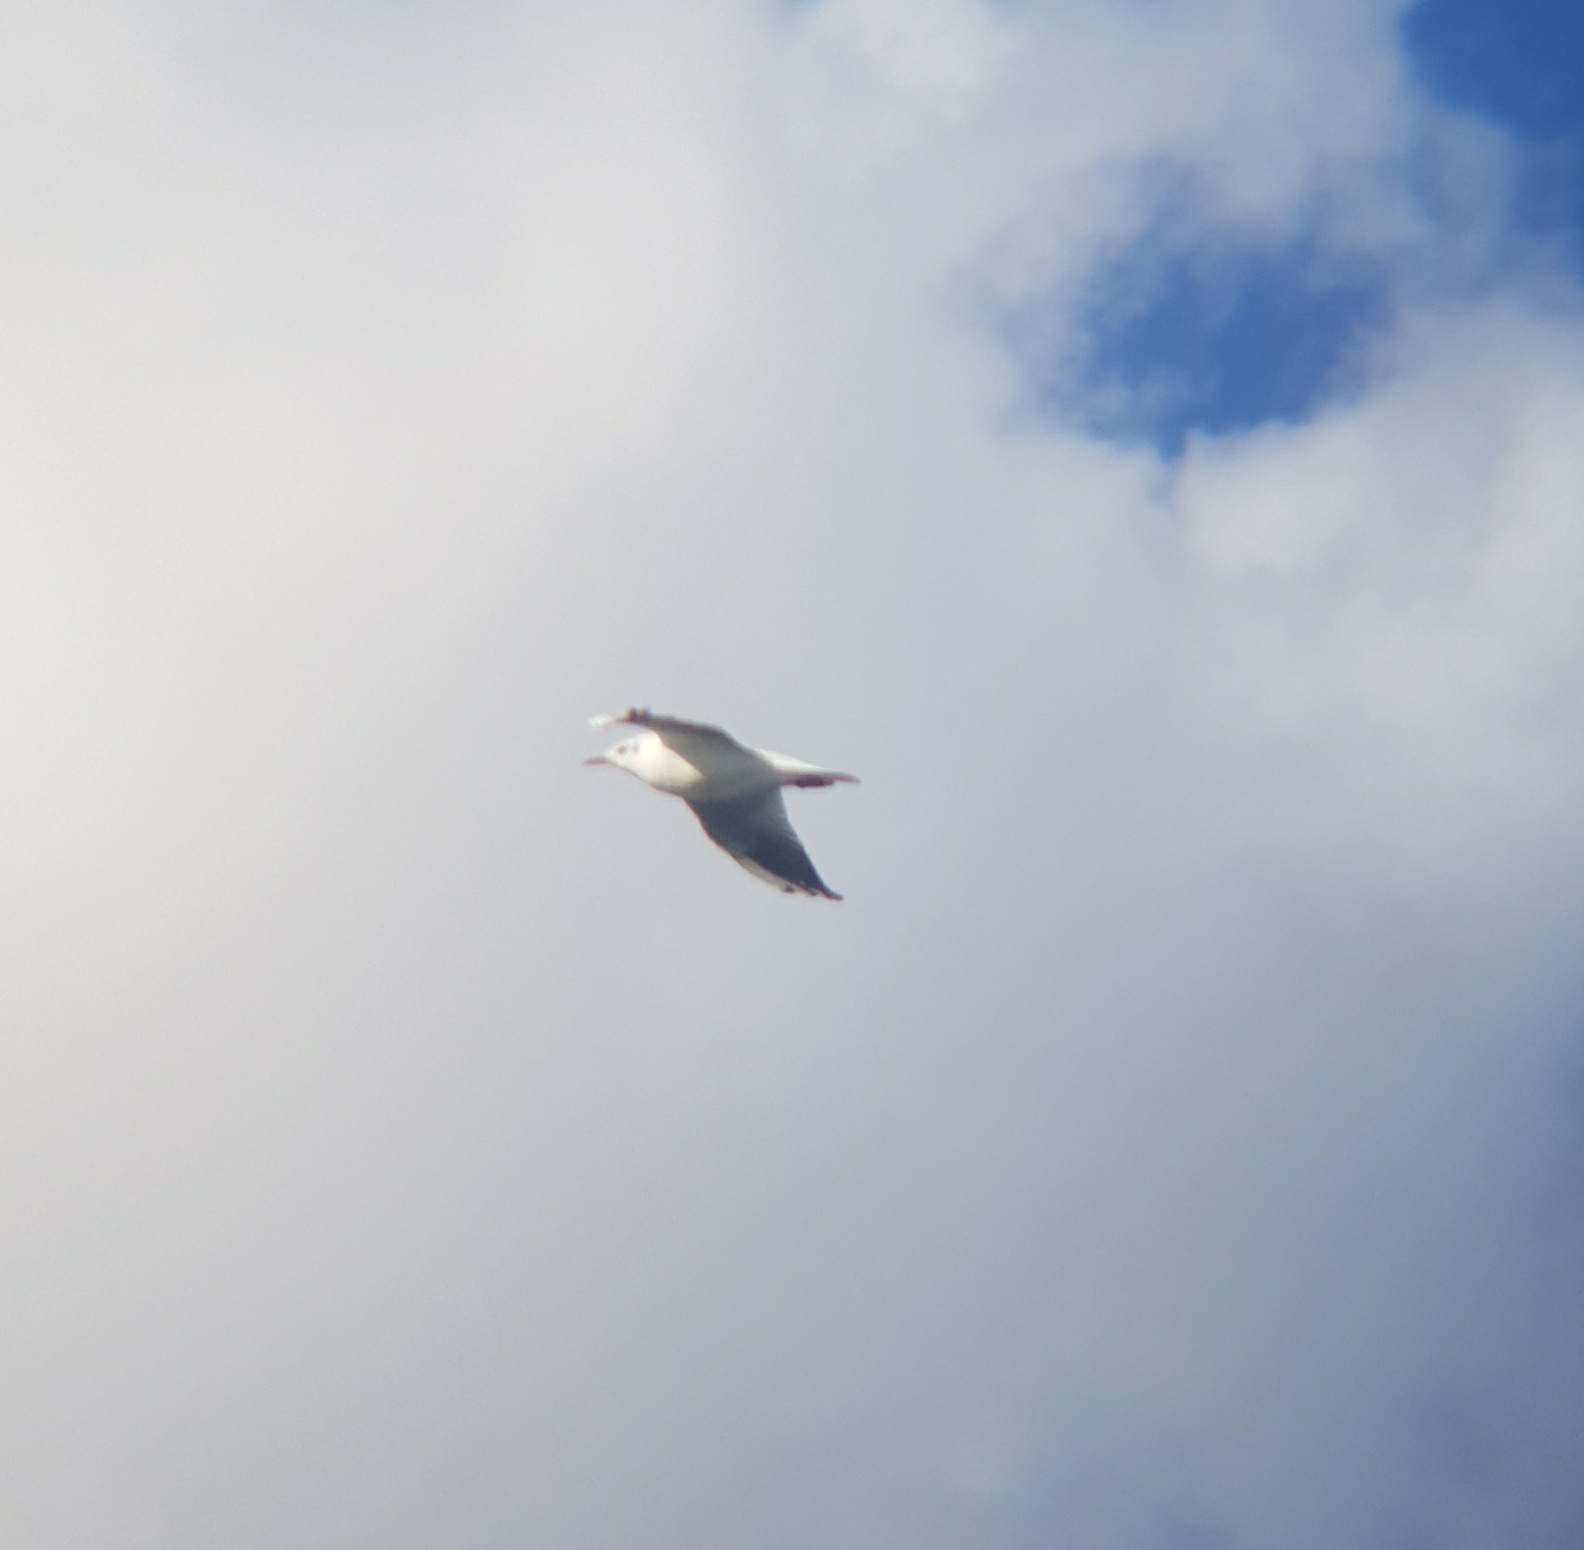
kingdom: Animalia
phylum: Chordata
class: Aves
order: Charadriiformes
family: Laridae
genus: Chroicocephalus
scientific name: Chroicocephalus ridibundus
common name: Black-headed gull
